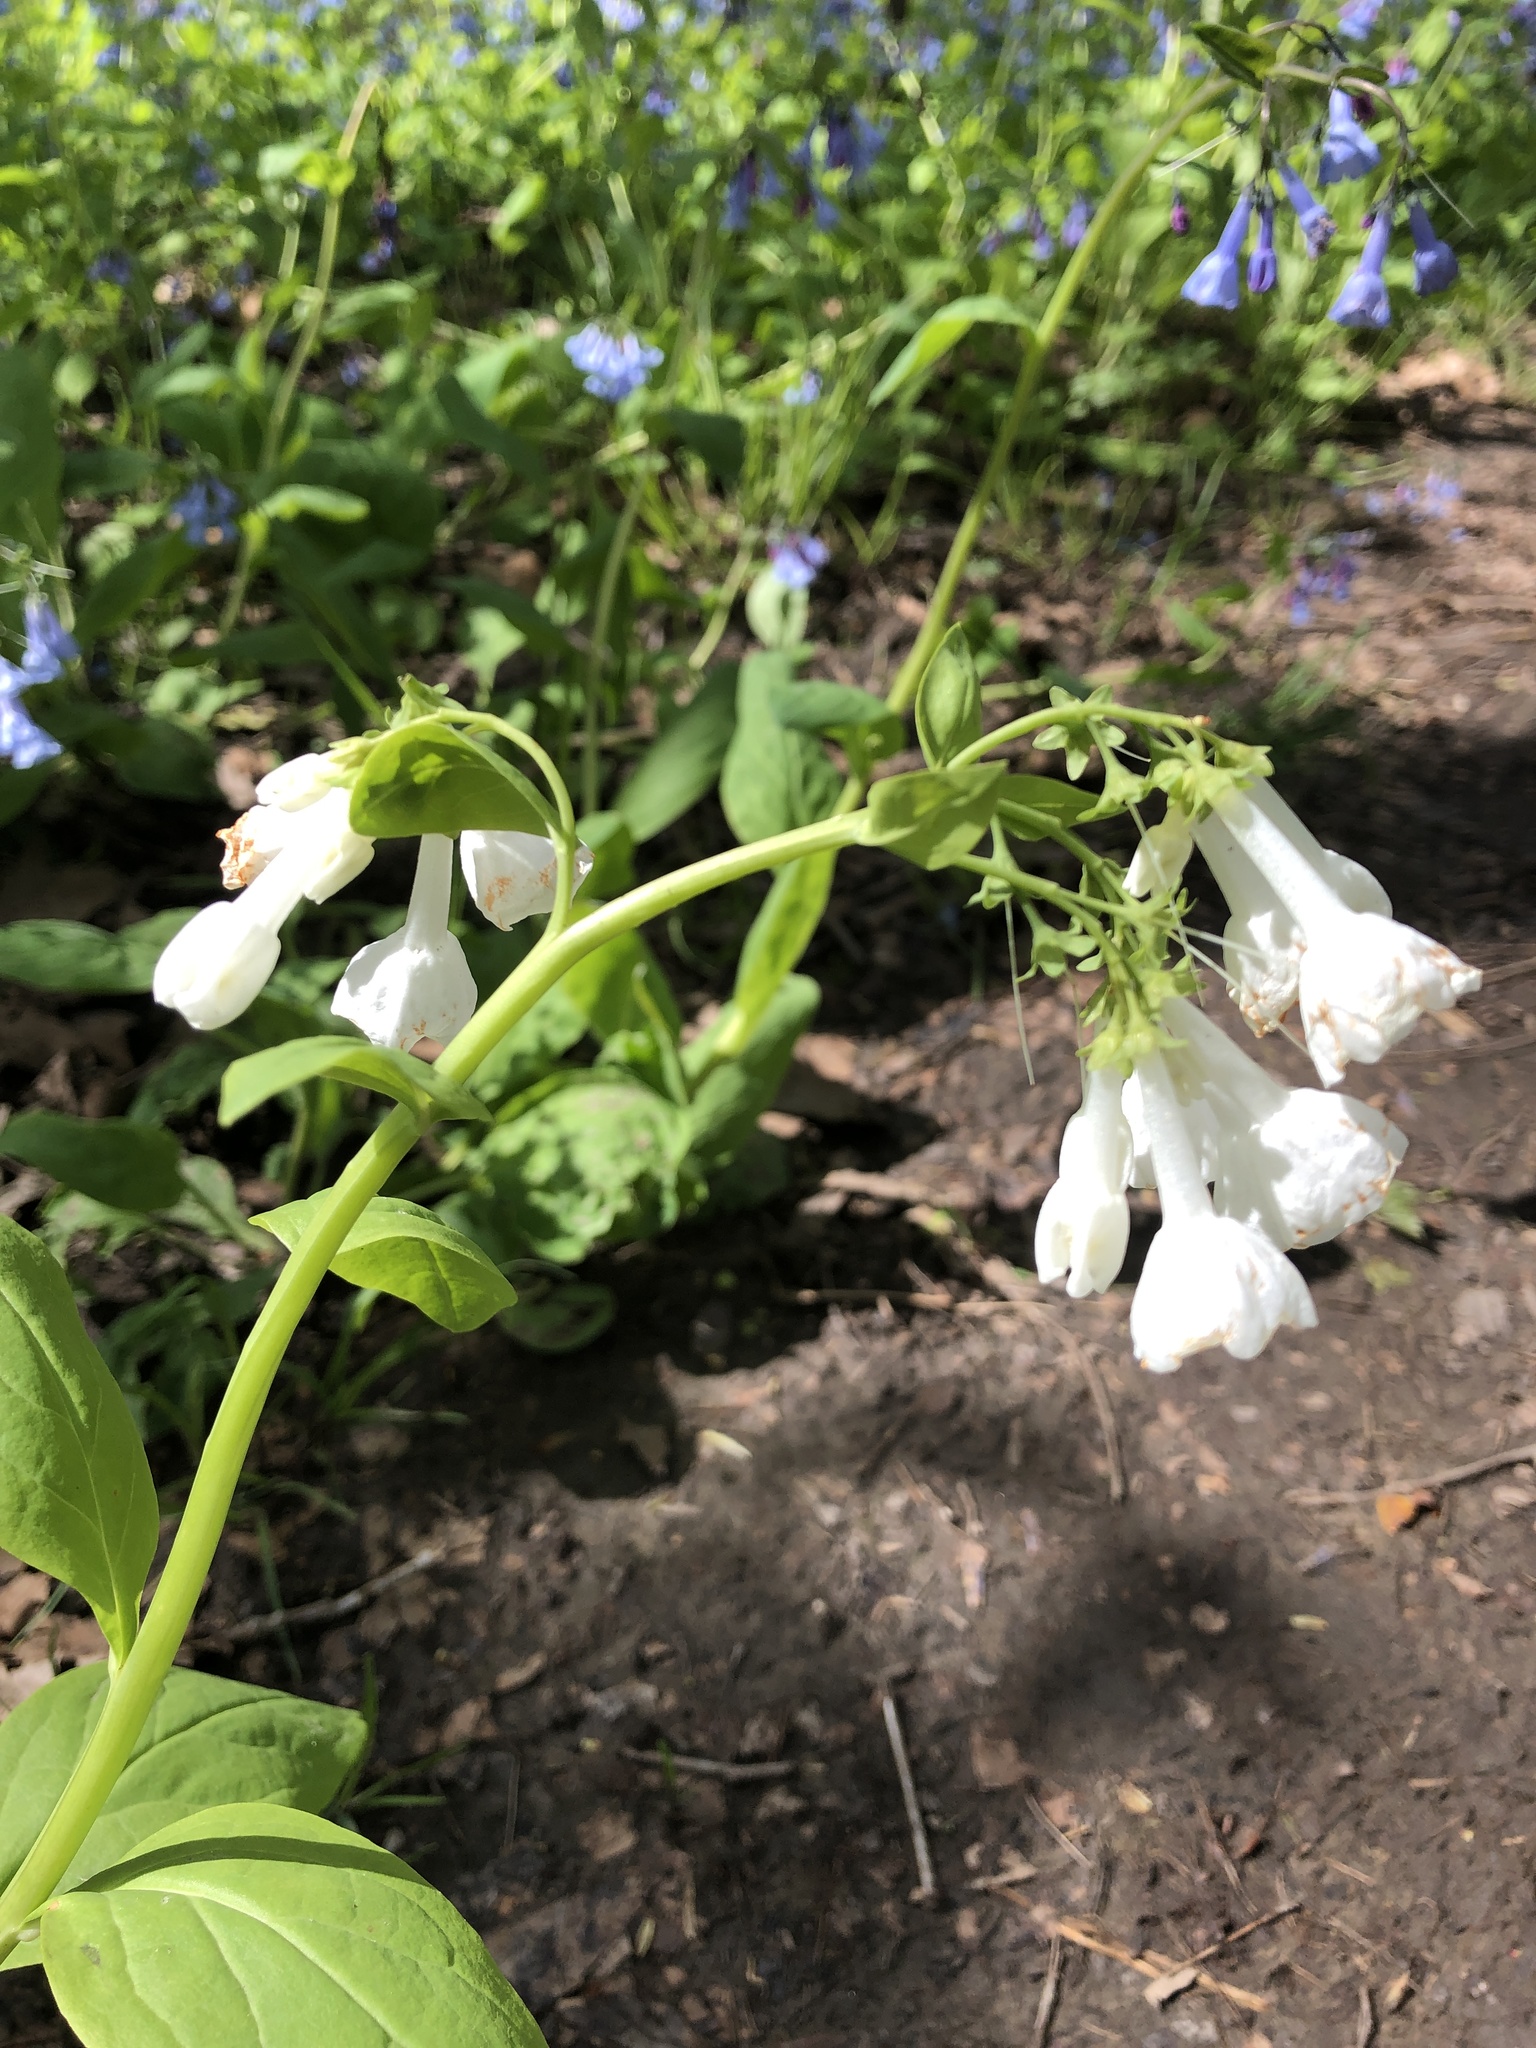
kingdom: Plantae
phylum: Tracheophyta
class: Magnoliopsida
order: Boraginales
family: Boraginaceae
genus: Mertensia
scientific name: Mertensia virginica
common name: Virginia bluebells
